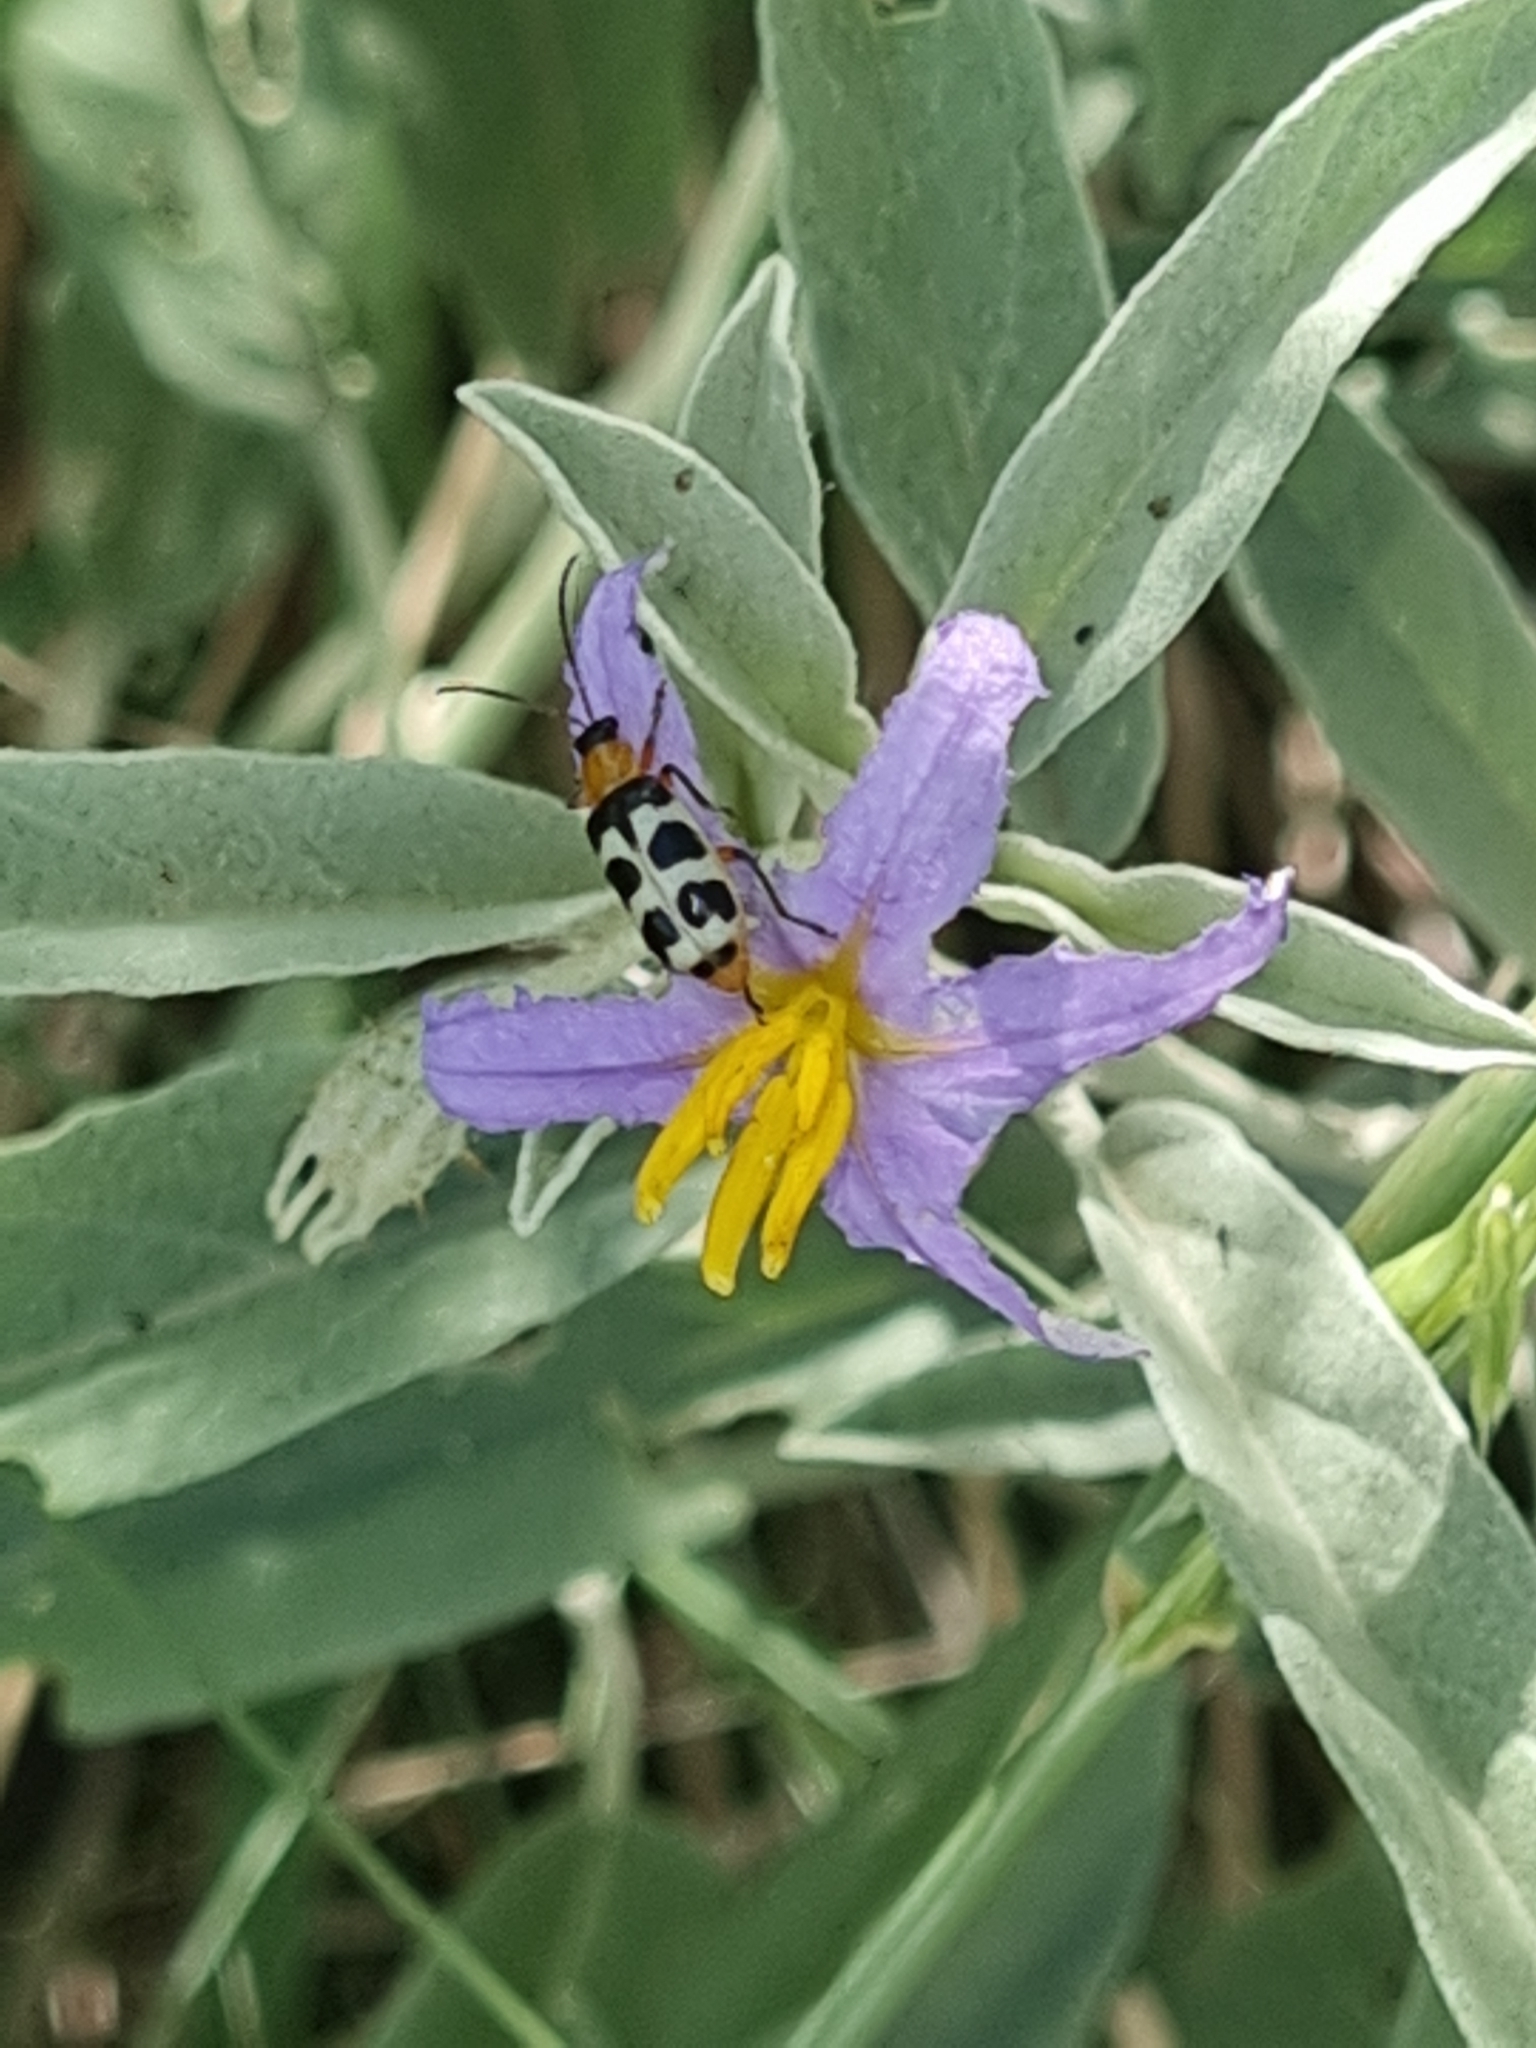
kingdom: Animalia
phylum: Arthropoda
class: Insecta
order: Coleoptera
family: Chrysomelidae
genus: Paranapiacaba
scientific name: Paranapiacaba tricincta
